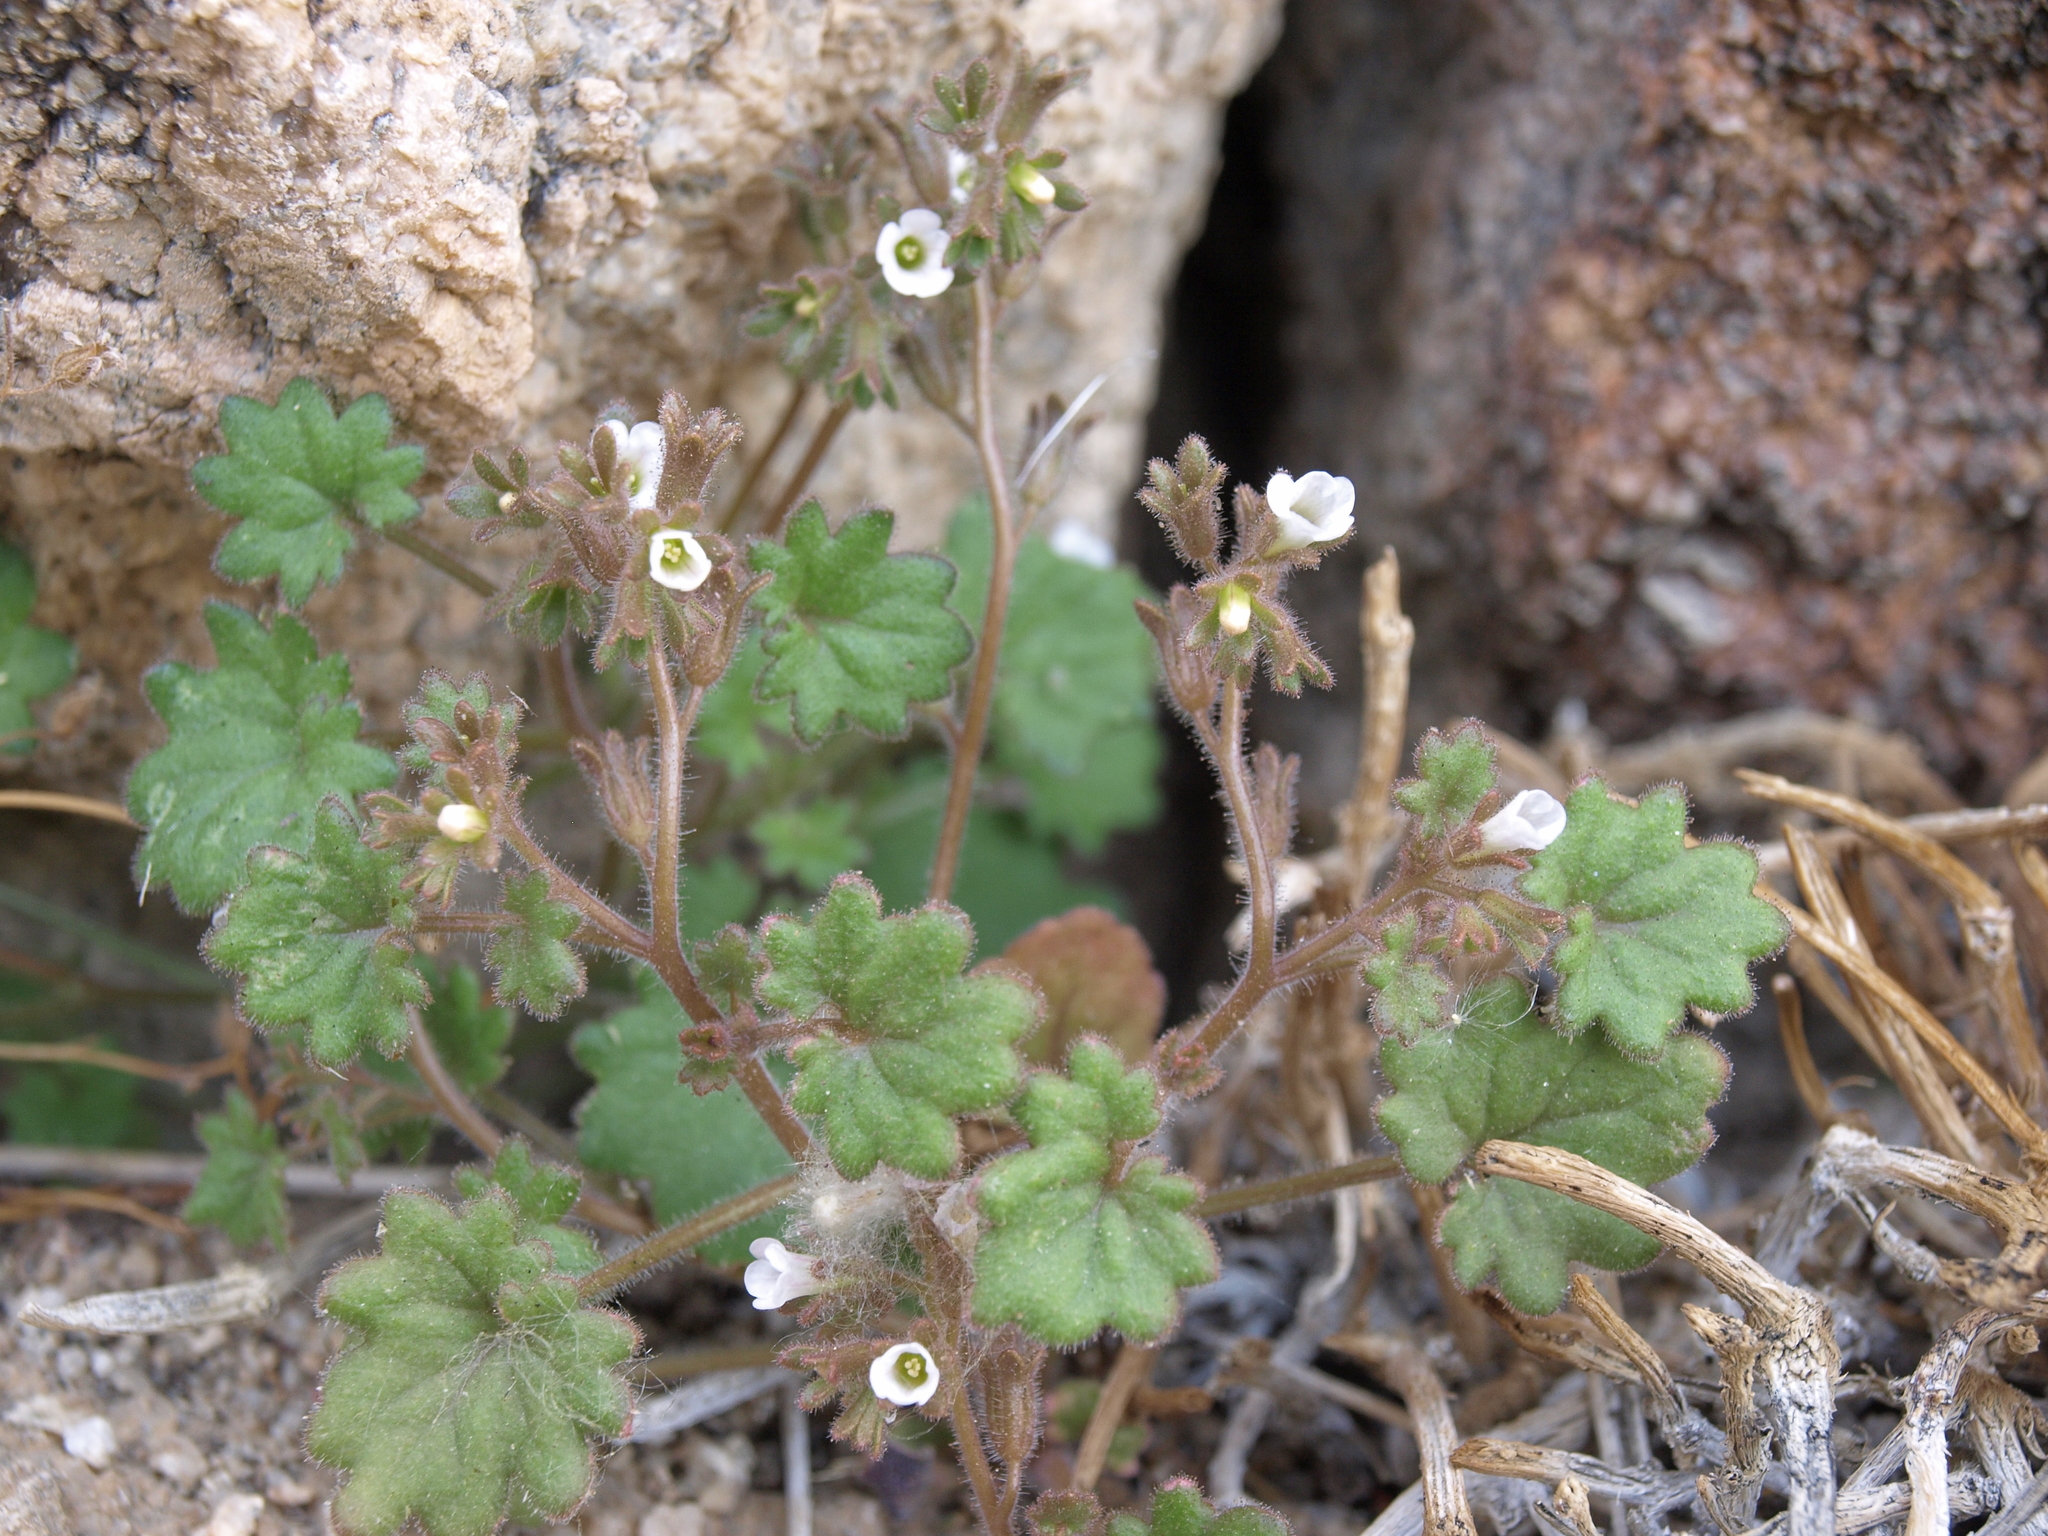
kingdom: Plantae
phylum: Tracheophyta
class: Magnoliopsida
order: Boraginales
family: Hydrophyllaceae
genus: Phacelia
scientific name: Phacelia rotundifolia
